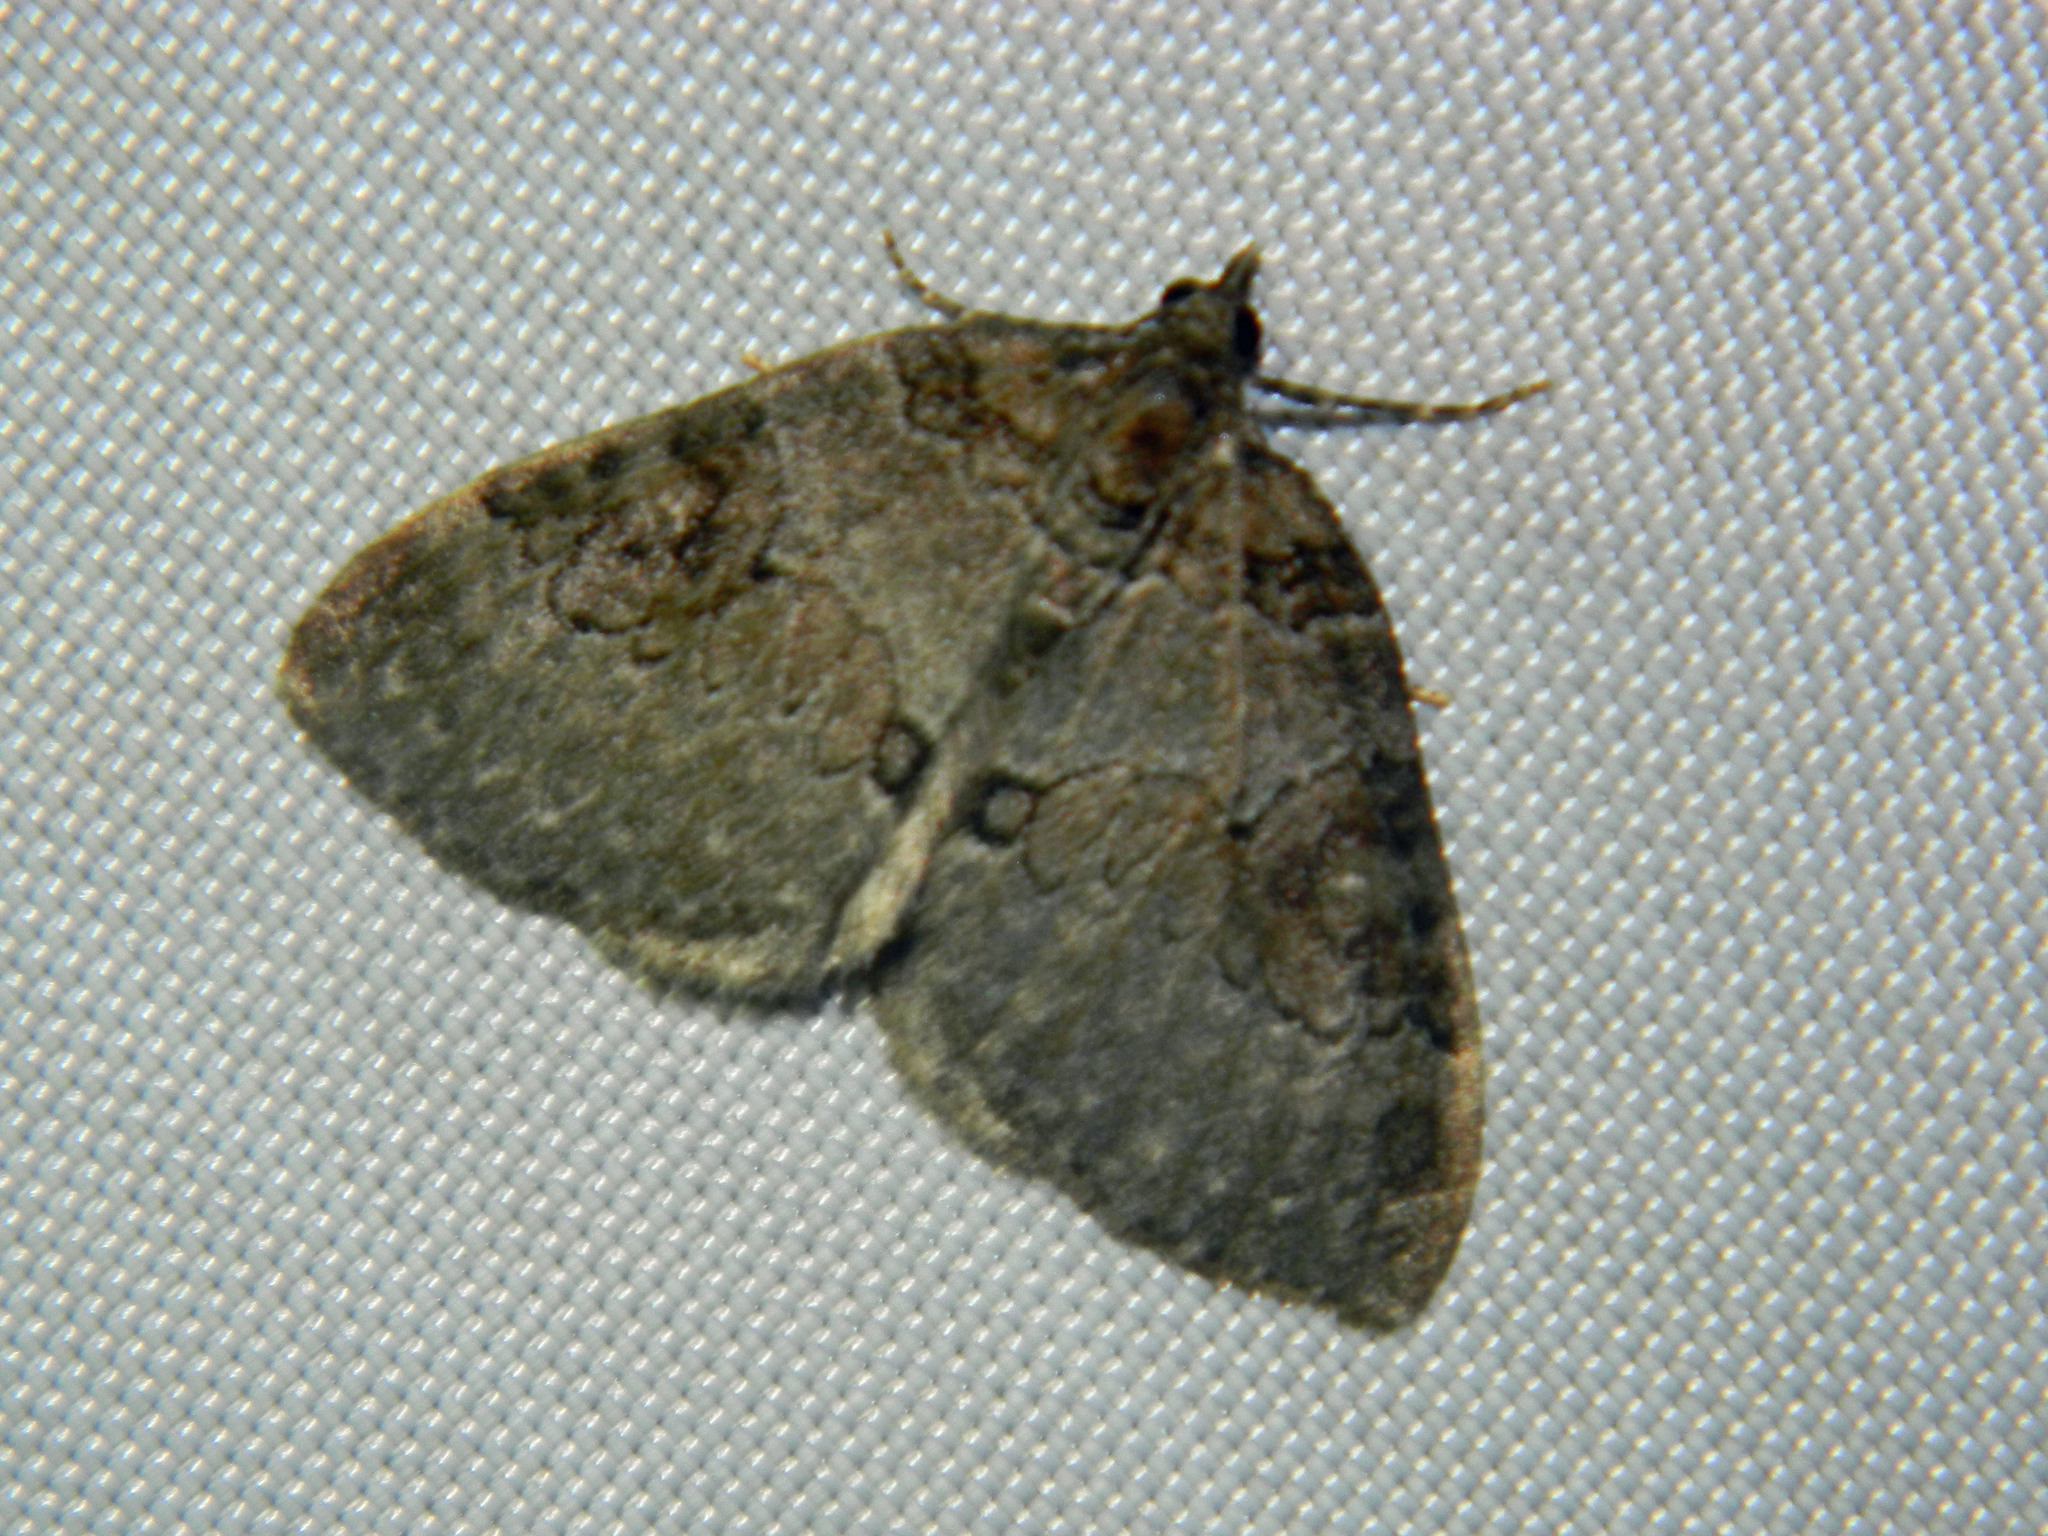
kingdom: Animalia
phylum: Arthropoda
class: Insecta
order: Lepidoptera
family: Geometridae
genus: Plemyria
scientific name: Plemyria georgii
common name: George's carpet moth
